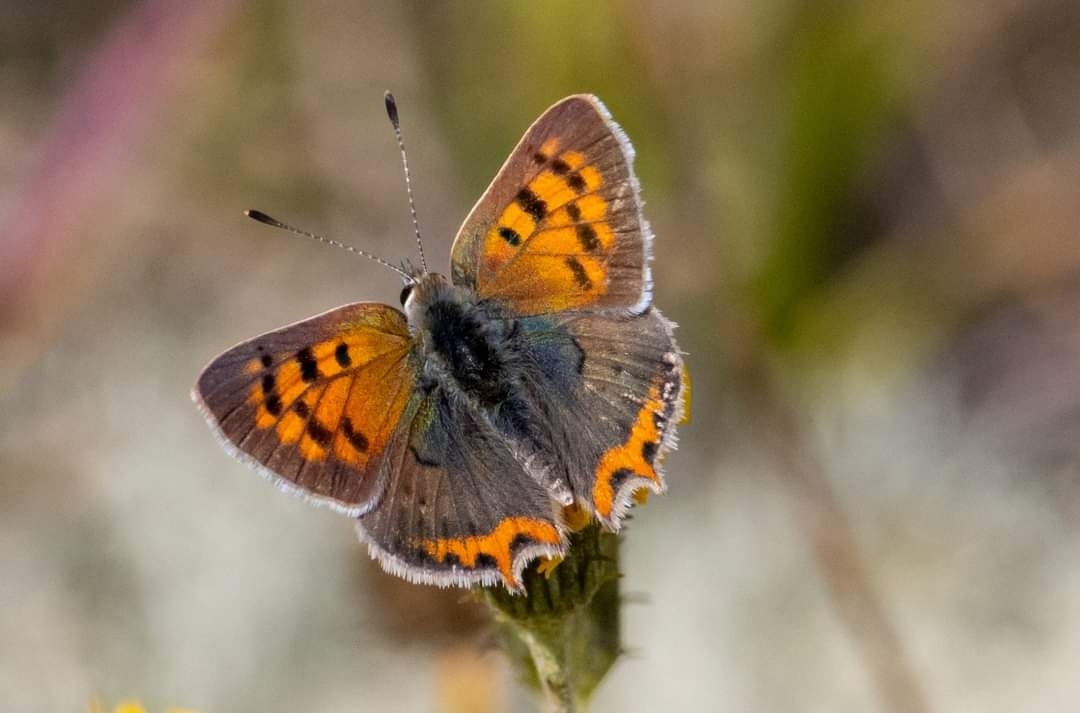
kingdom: Animalia
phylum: Arthropoda
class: Insecta
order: Lepidoptera
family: Lycaenidae
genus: Lycaena
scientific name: Lycaena phlaeas
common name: Small copper
